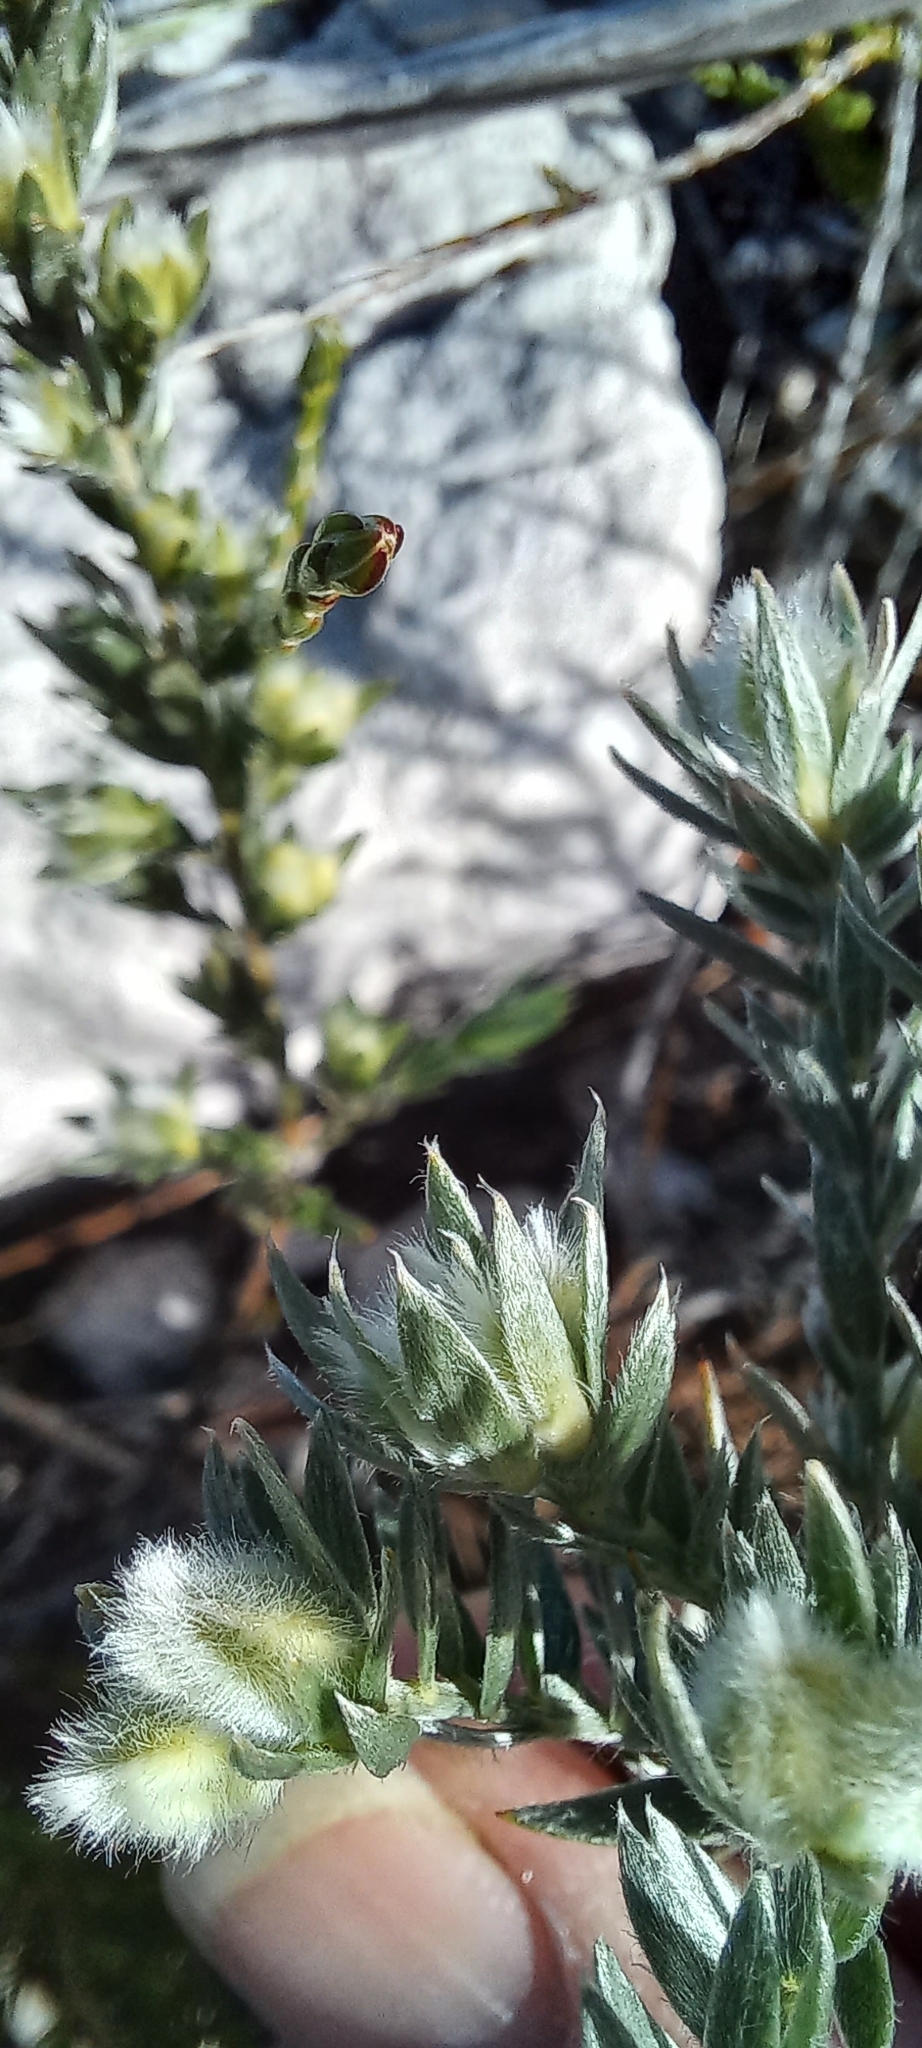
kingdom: Plantae
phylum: Tracheophyta
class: Magnoliopsida
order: Fabales
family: Fabaceae
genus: Amphithalea
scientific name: Amphithalea tomentosa
